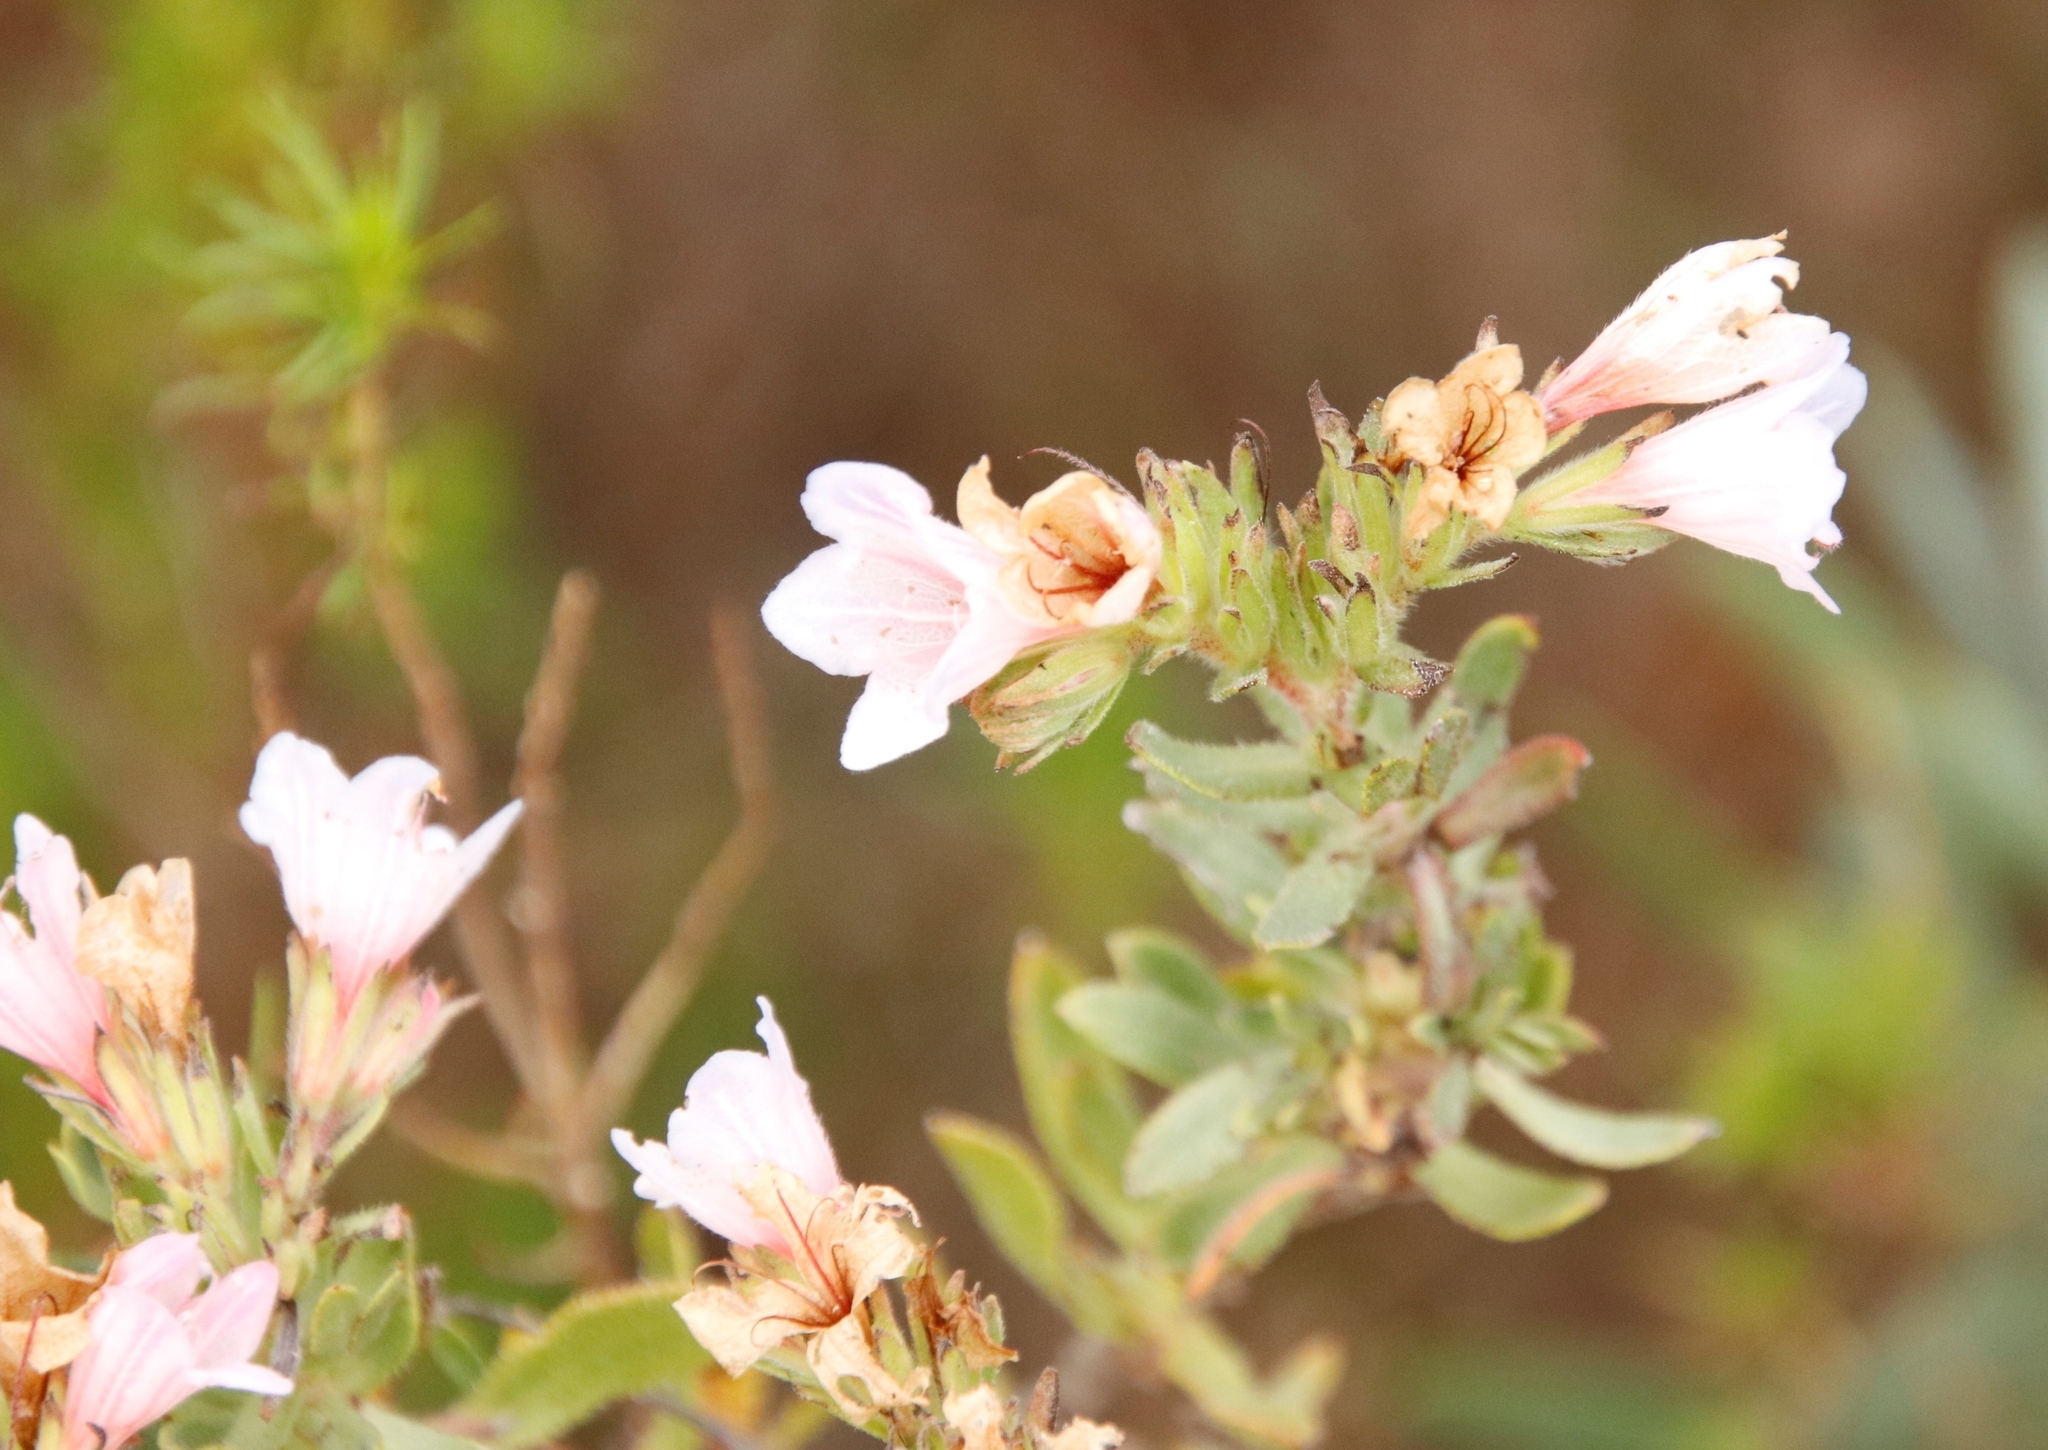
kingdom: Plantae
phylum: Tracheophyta
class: Magnoliopsida
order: Boraginales
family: Boraginaceae
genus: Lobostemon
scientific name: Lobostemon fruticosus
